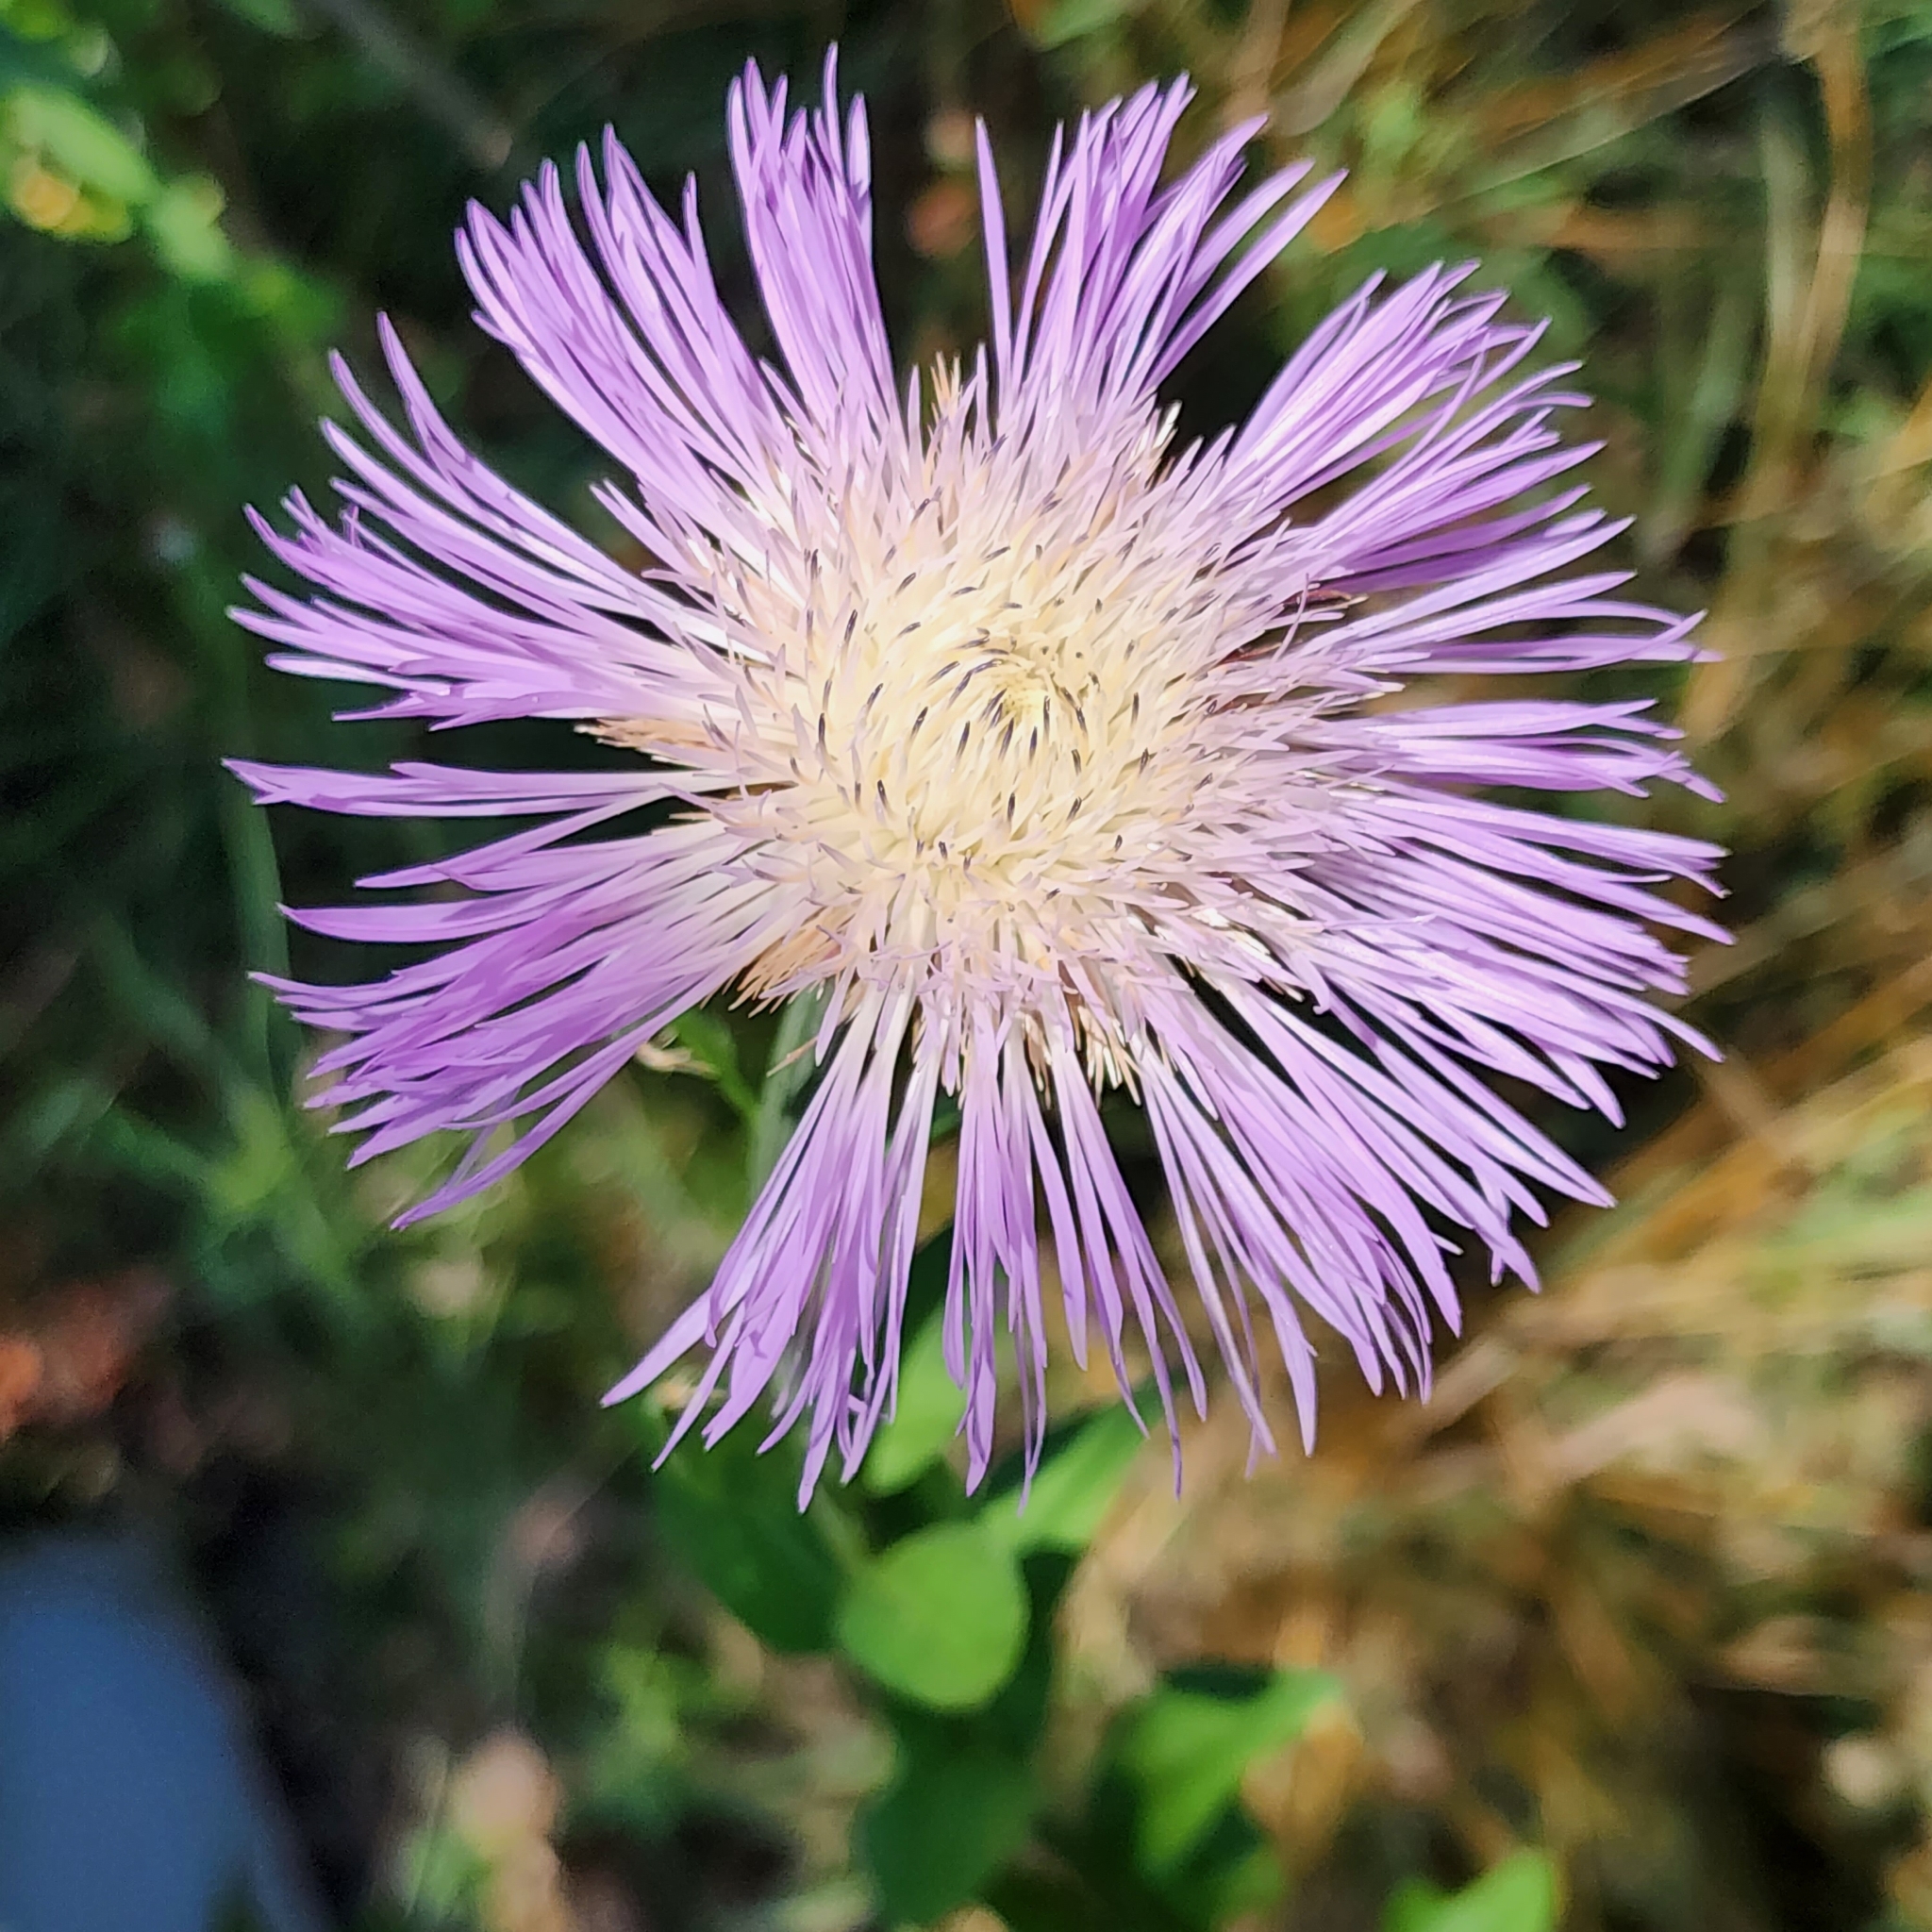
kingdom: Plantae
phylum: Tracheophyta
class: Magnoliopsida
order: Asterales
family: Asteraceae
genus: Plectocephalus
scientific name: Plectocephalus americanus
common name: American basket-flower
